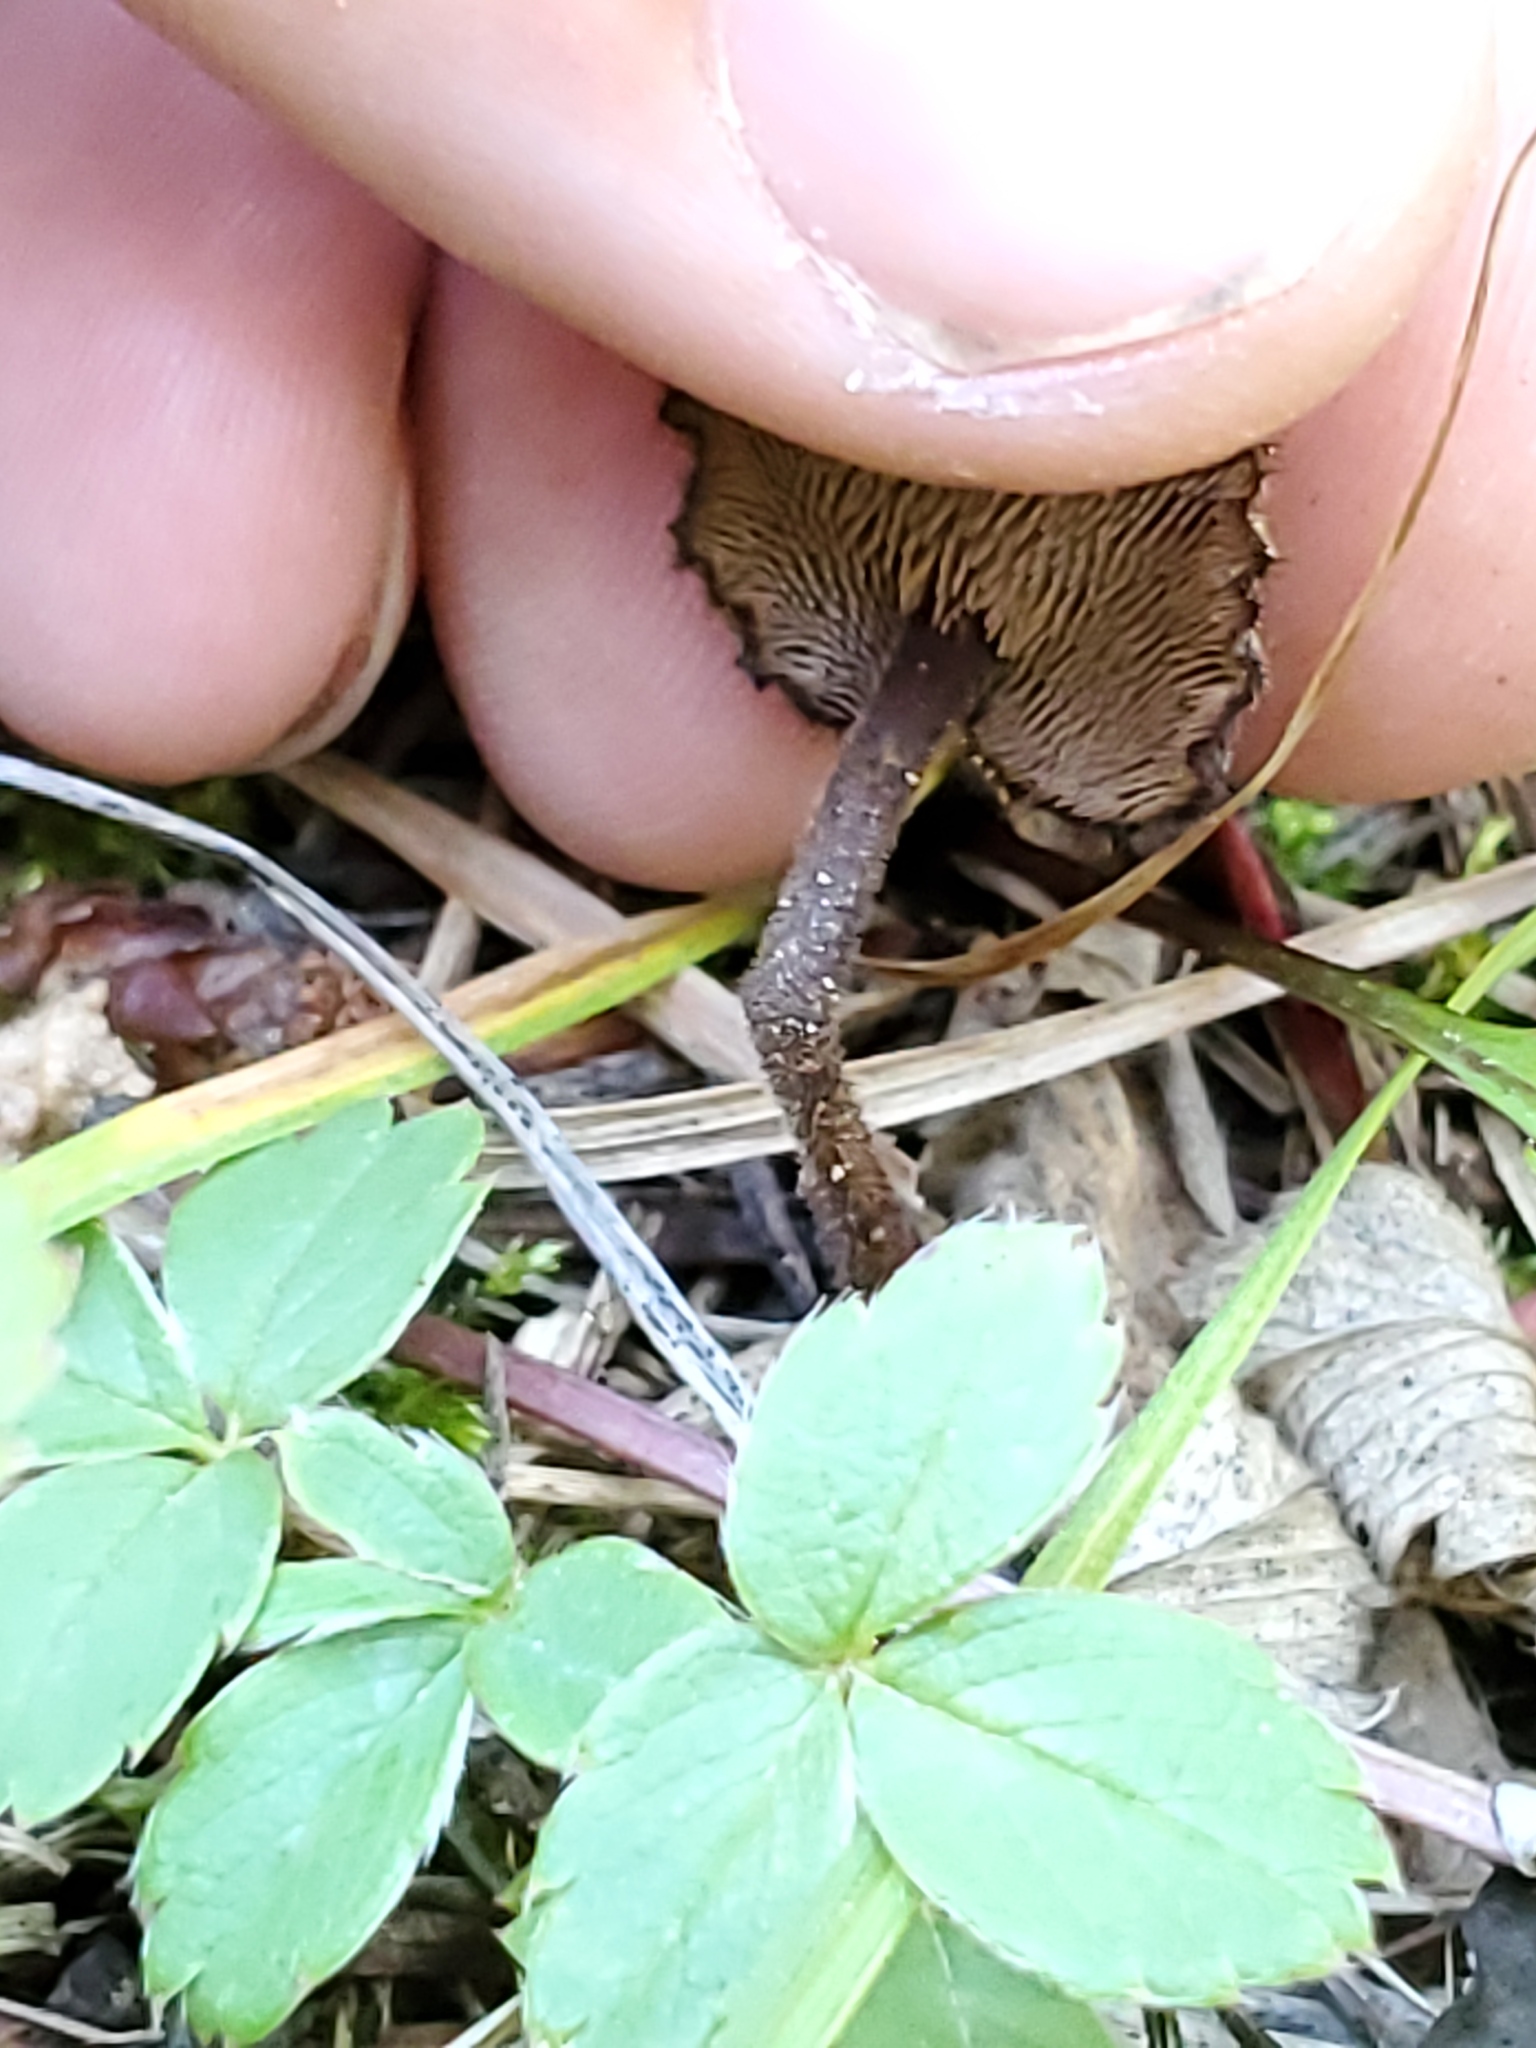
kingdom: Fungi
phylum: Basidiomycota
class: Agaricomycetes
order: Russulales
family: Auriscalpiaceae
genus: Auriscalpium
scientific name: Auriscalpium vulgare
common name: Earpick fungus
